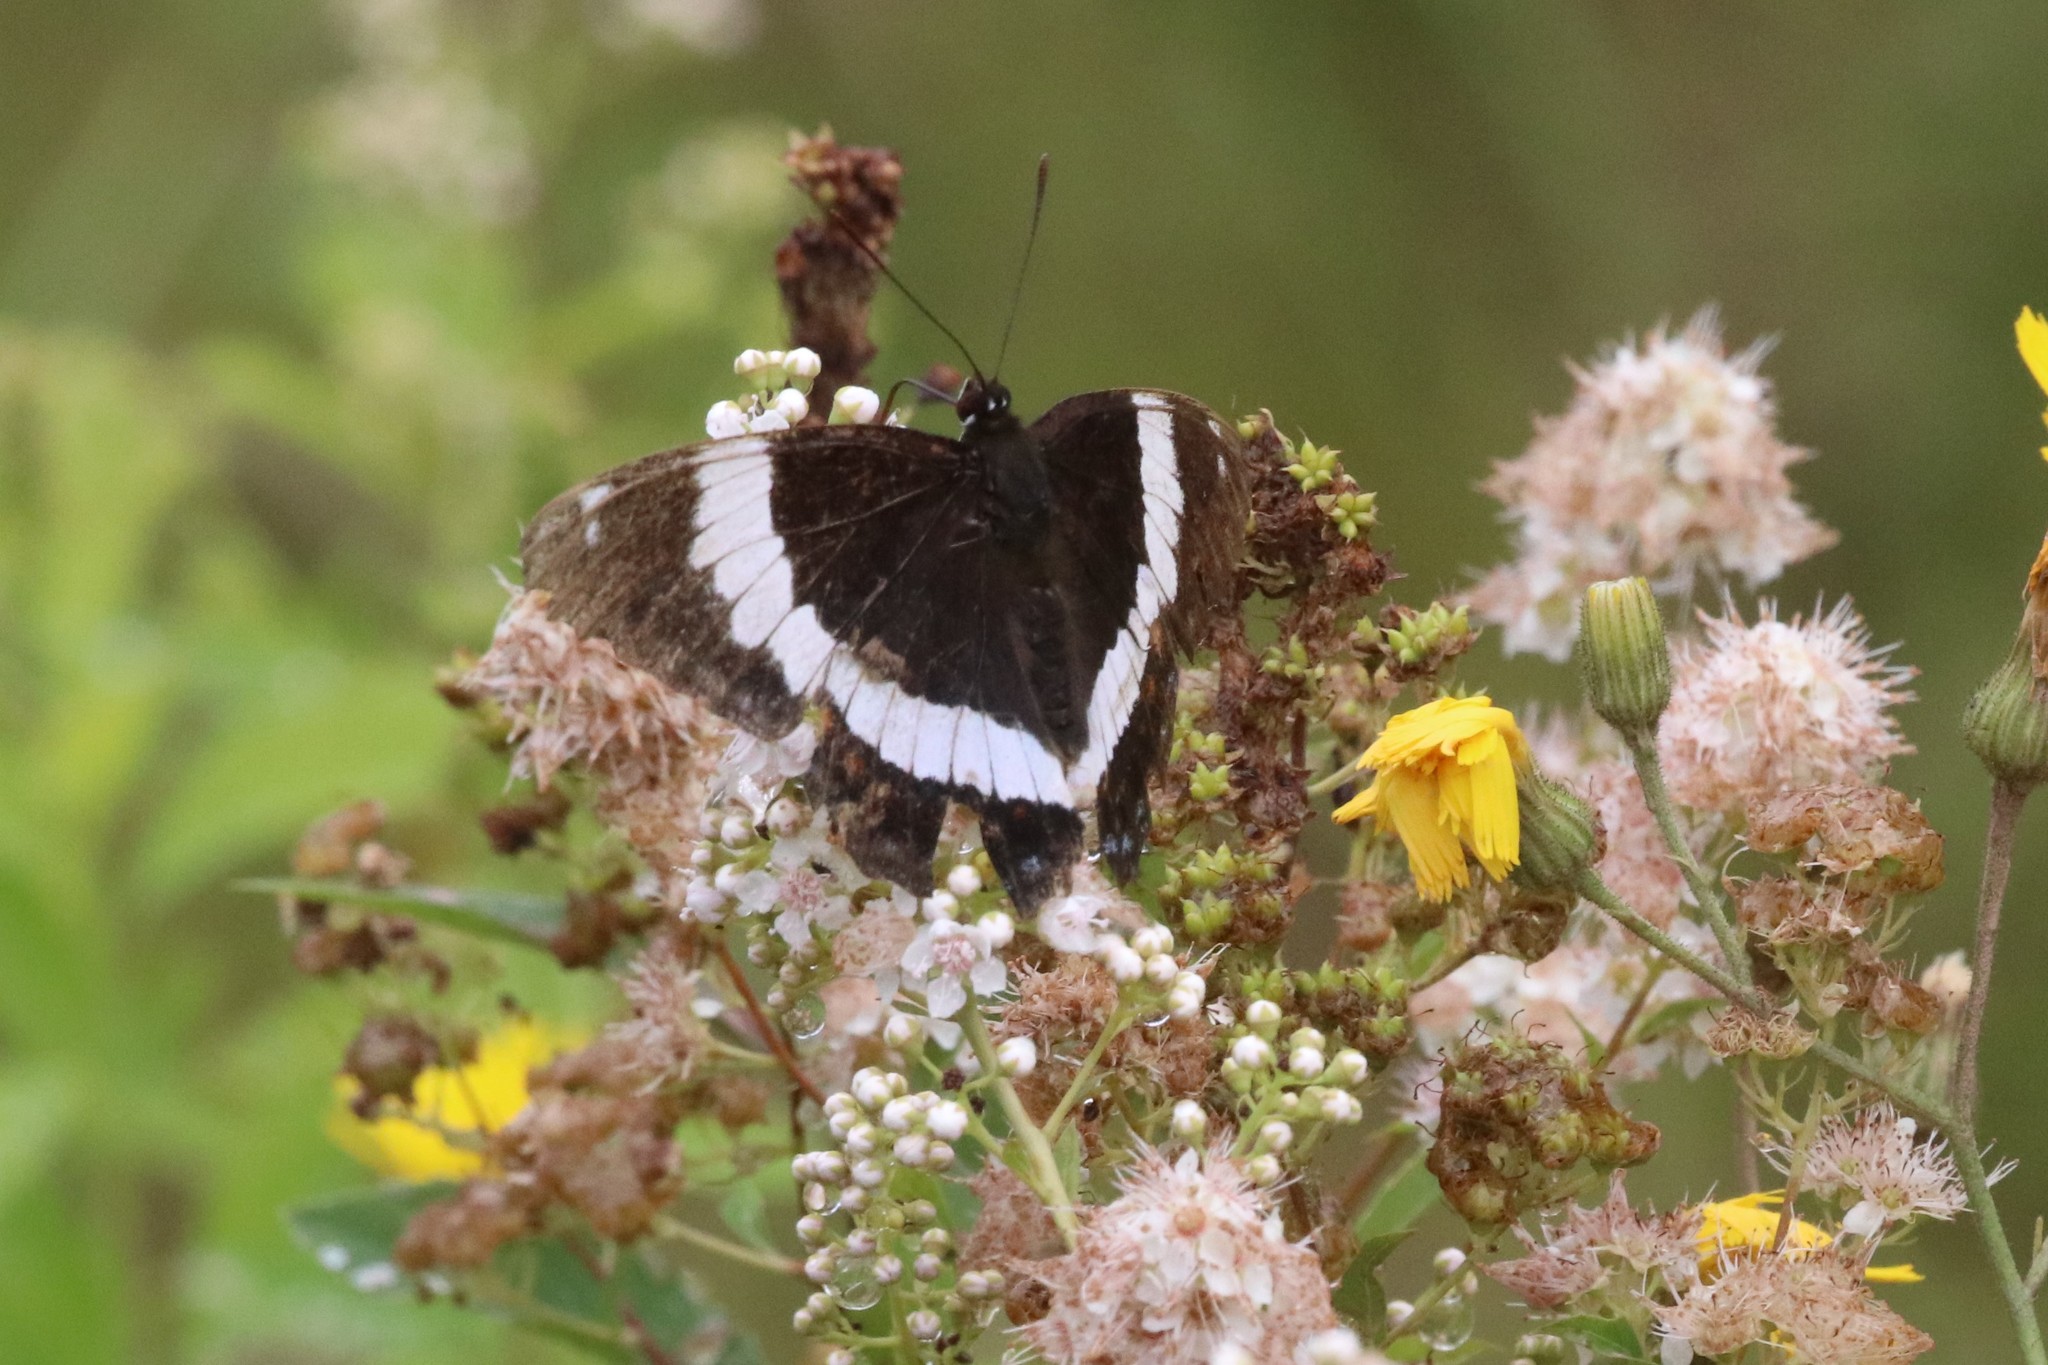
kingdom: Animalia
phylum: Arthropoda
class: Insecta
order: Lepidoptera
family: Nymphalidae
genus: Limenitis
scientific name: Limenitis arthemis
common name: Red-spotted admiral
